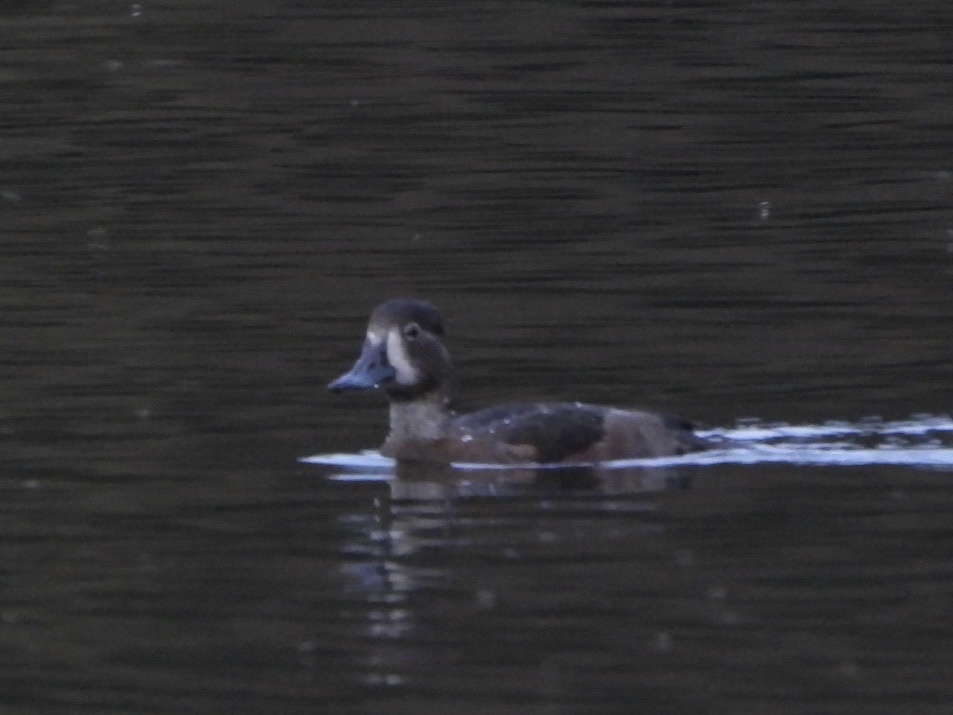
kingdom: Animalia
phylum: Chordata
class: Aves
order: Anseriformes
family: Anatidae
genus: Aythya
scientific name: Aythya collaris
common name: Ring-necked duck
